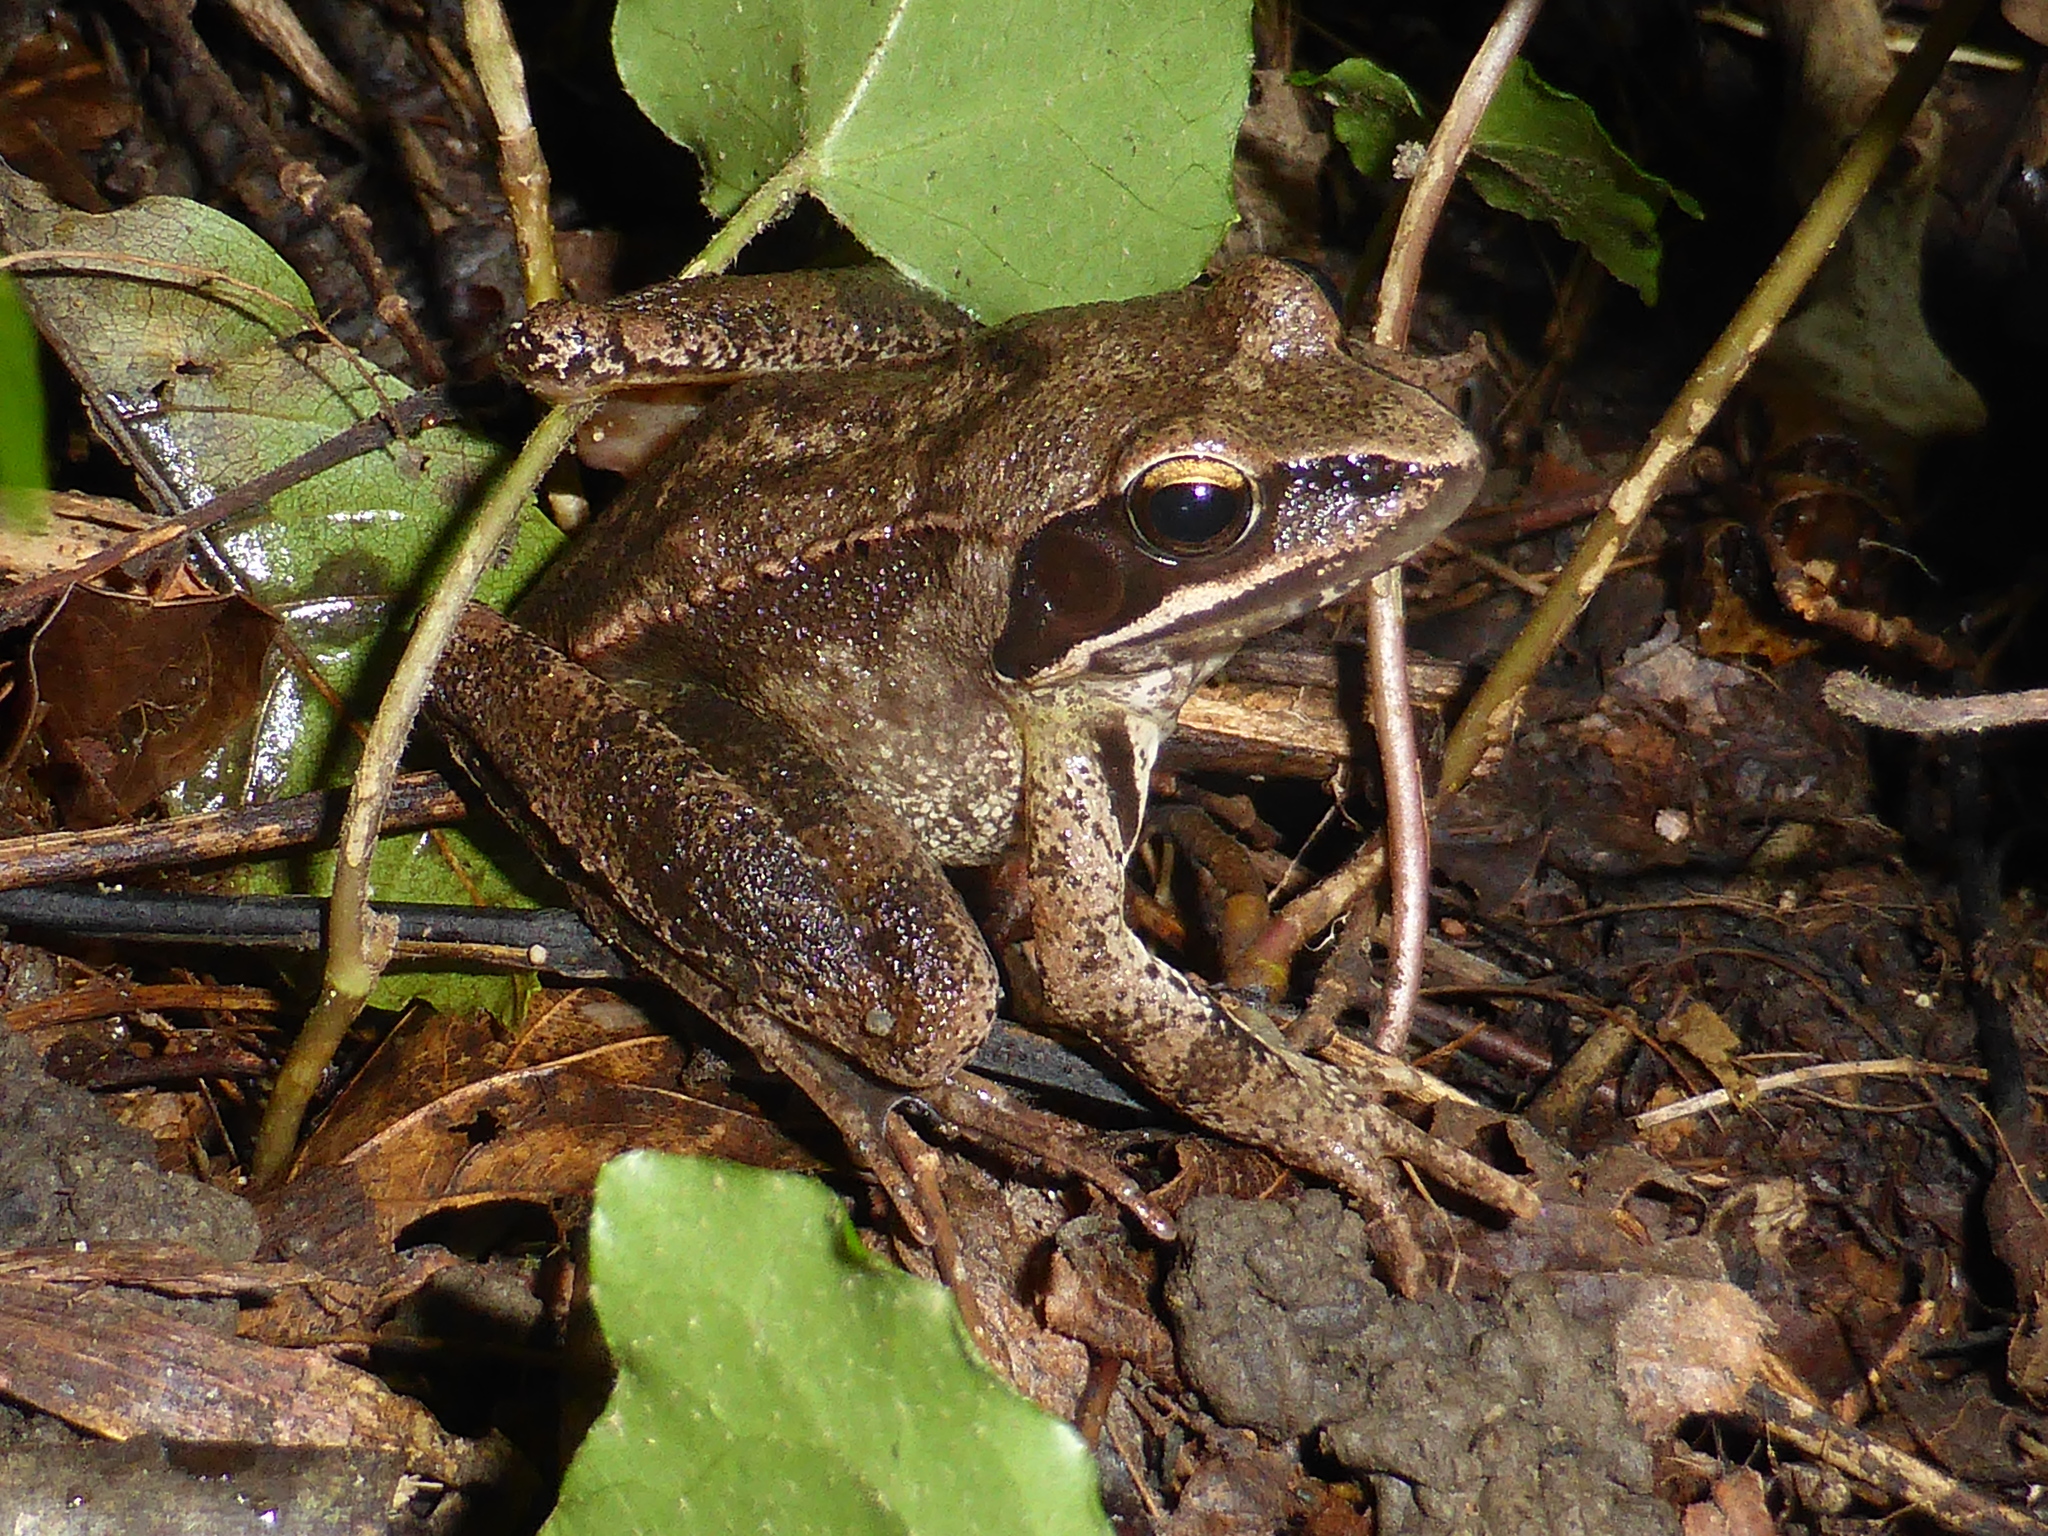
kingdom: Animalia
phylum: Chordata
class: Amphibia
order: Anura
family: Ranidae
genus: Rana
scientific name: Rana dalmatina
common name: Agile frog
